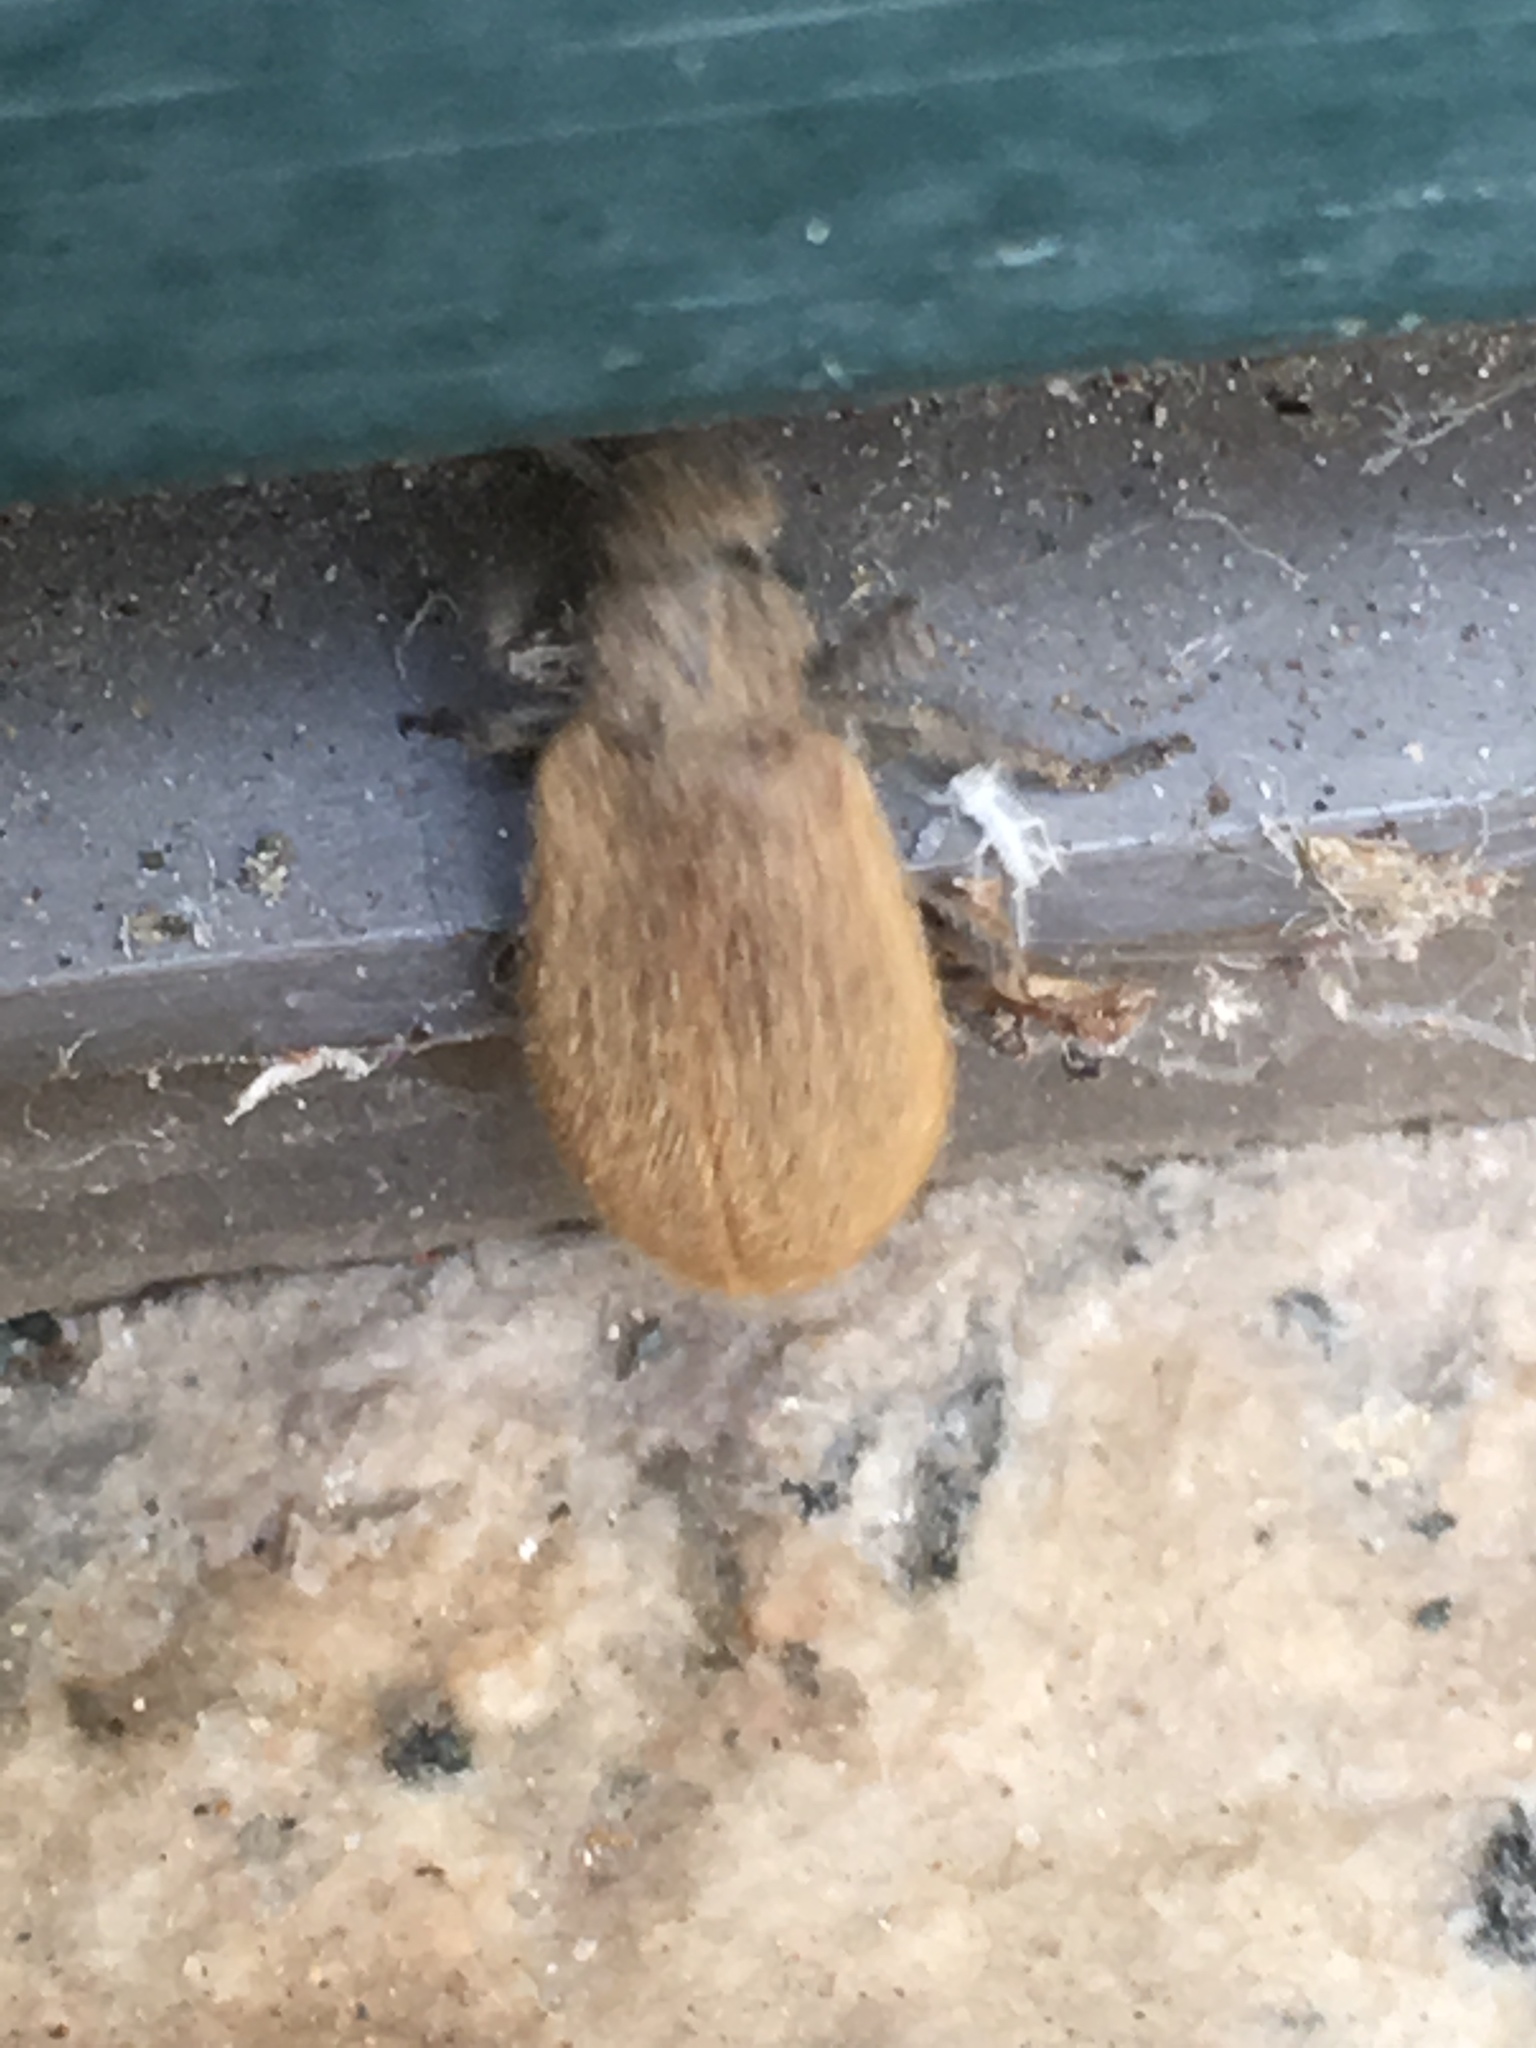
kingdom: Animalia
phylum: Arthropoda
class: Insecta
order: Coleoptera
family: Tenebrionidae
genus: Lagria
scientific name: Lagria hirta
